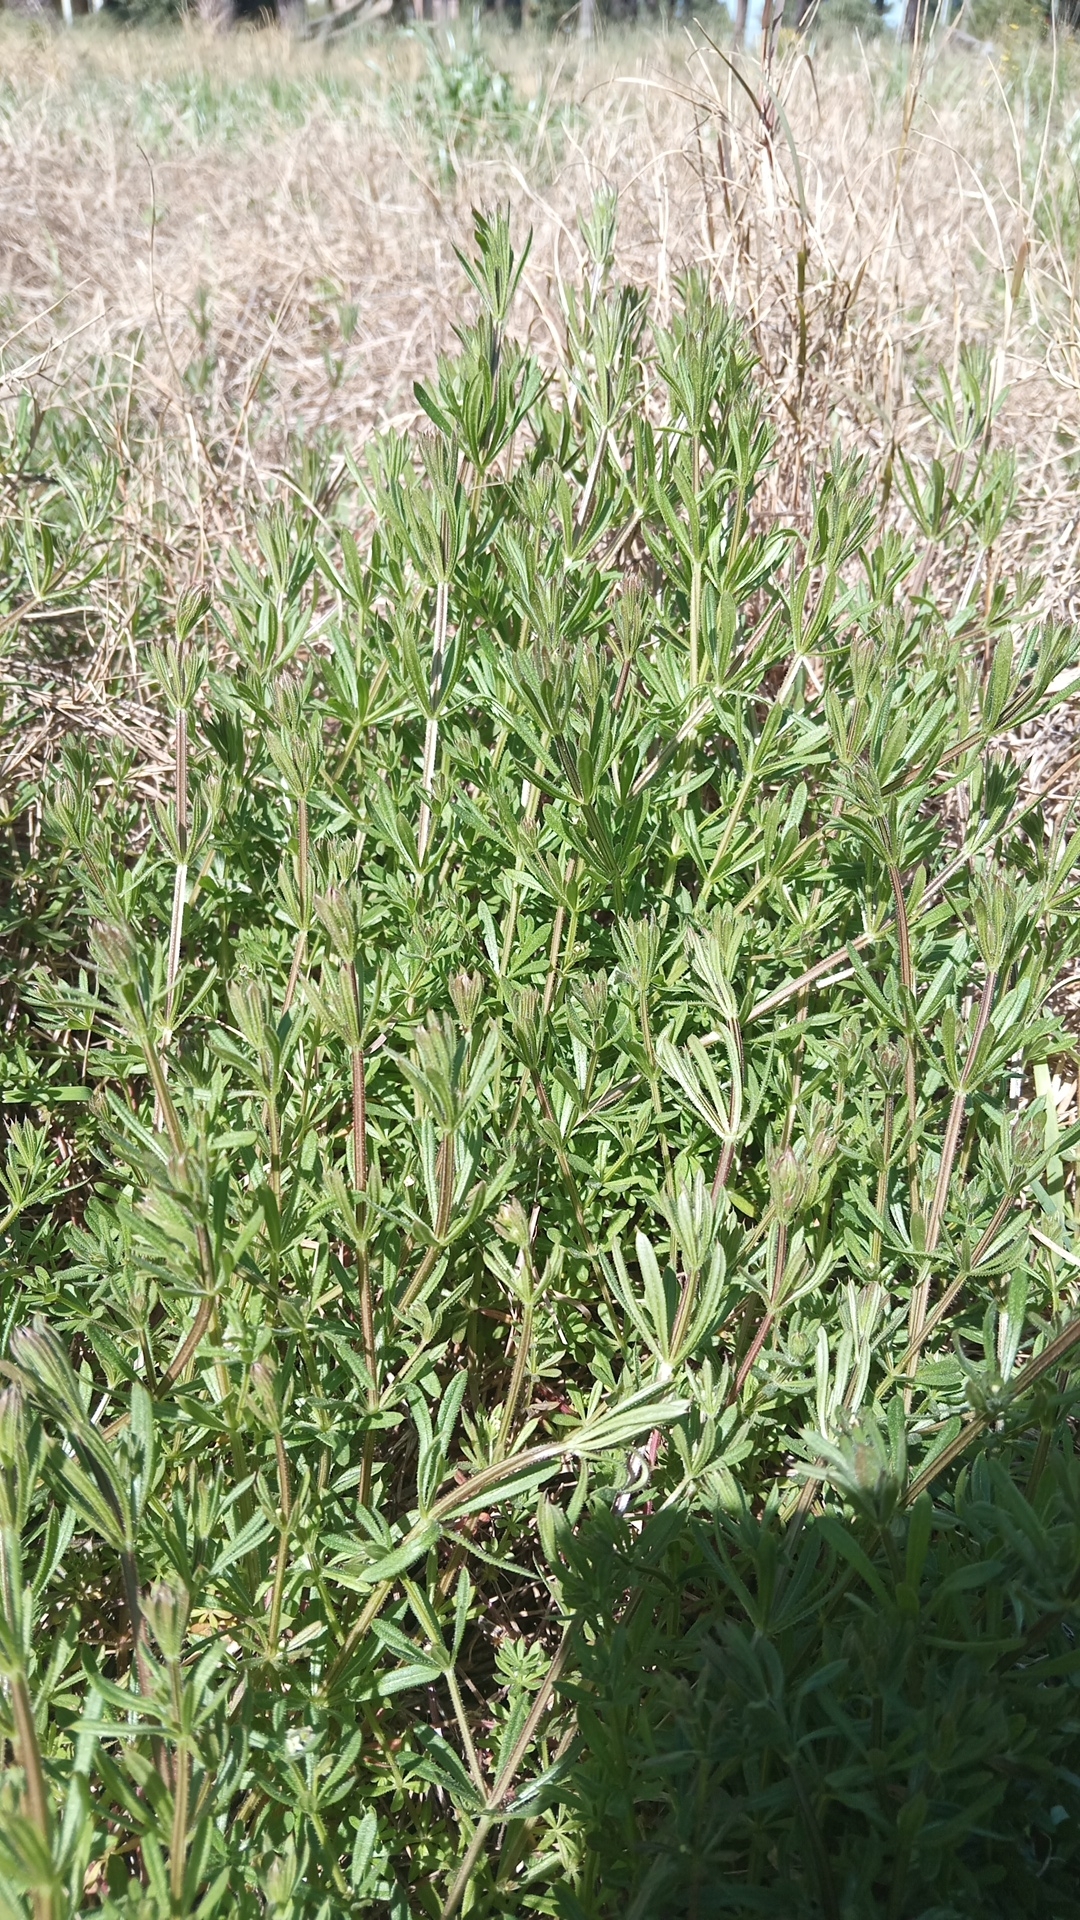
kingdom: Plantae
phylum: Tracheophyta
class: Magnoliopsida
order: Gentianales
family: Rubiaceae
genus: Galium
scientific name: Galium aparine
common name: Cleavers
